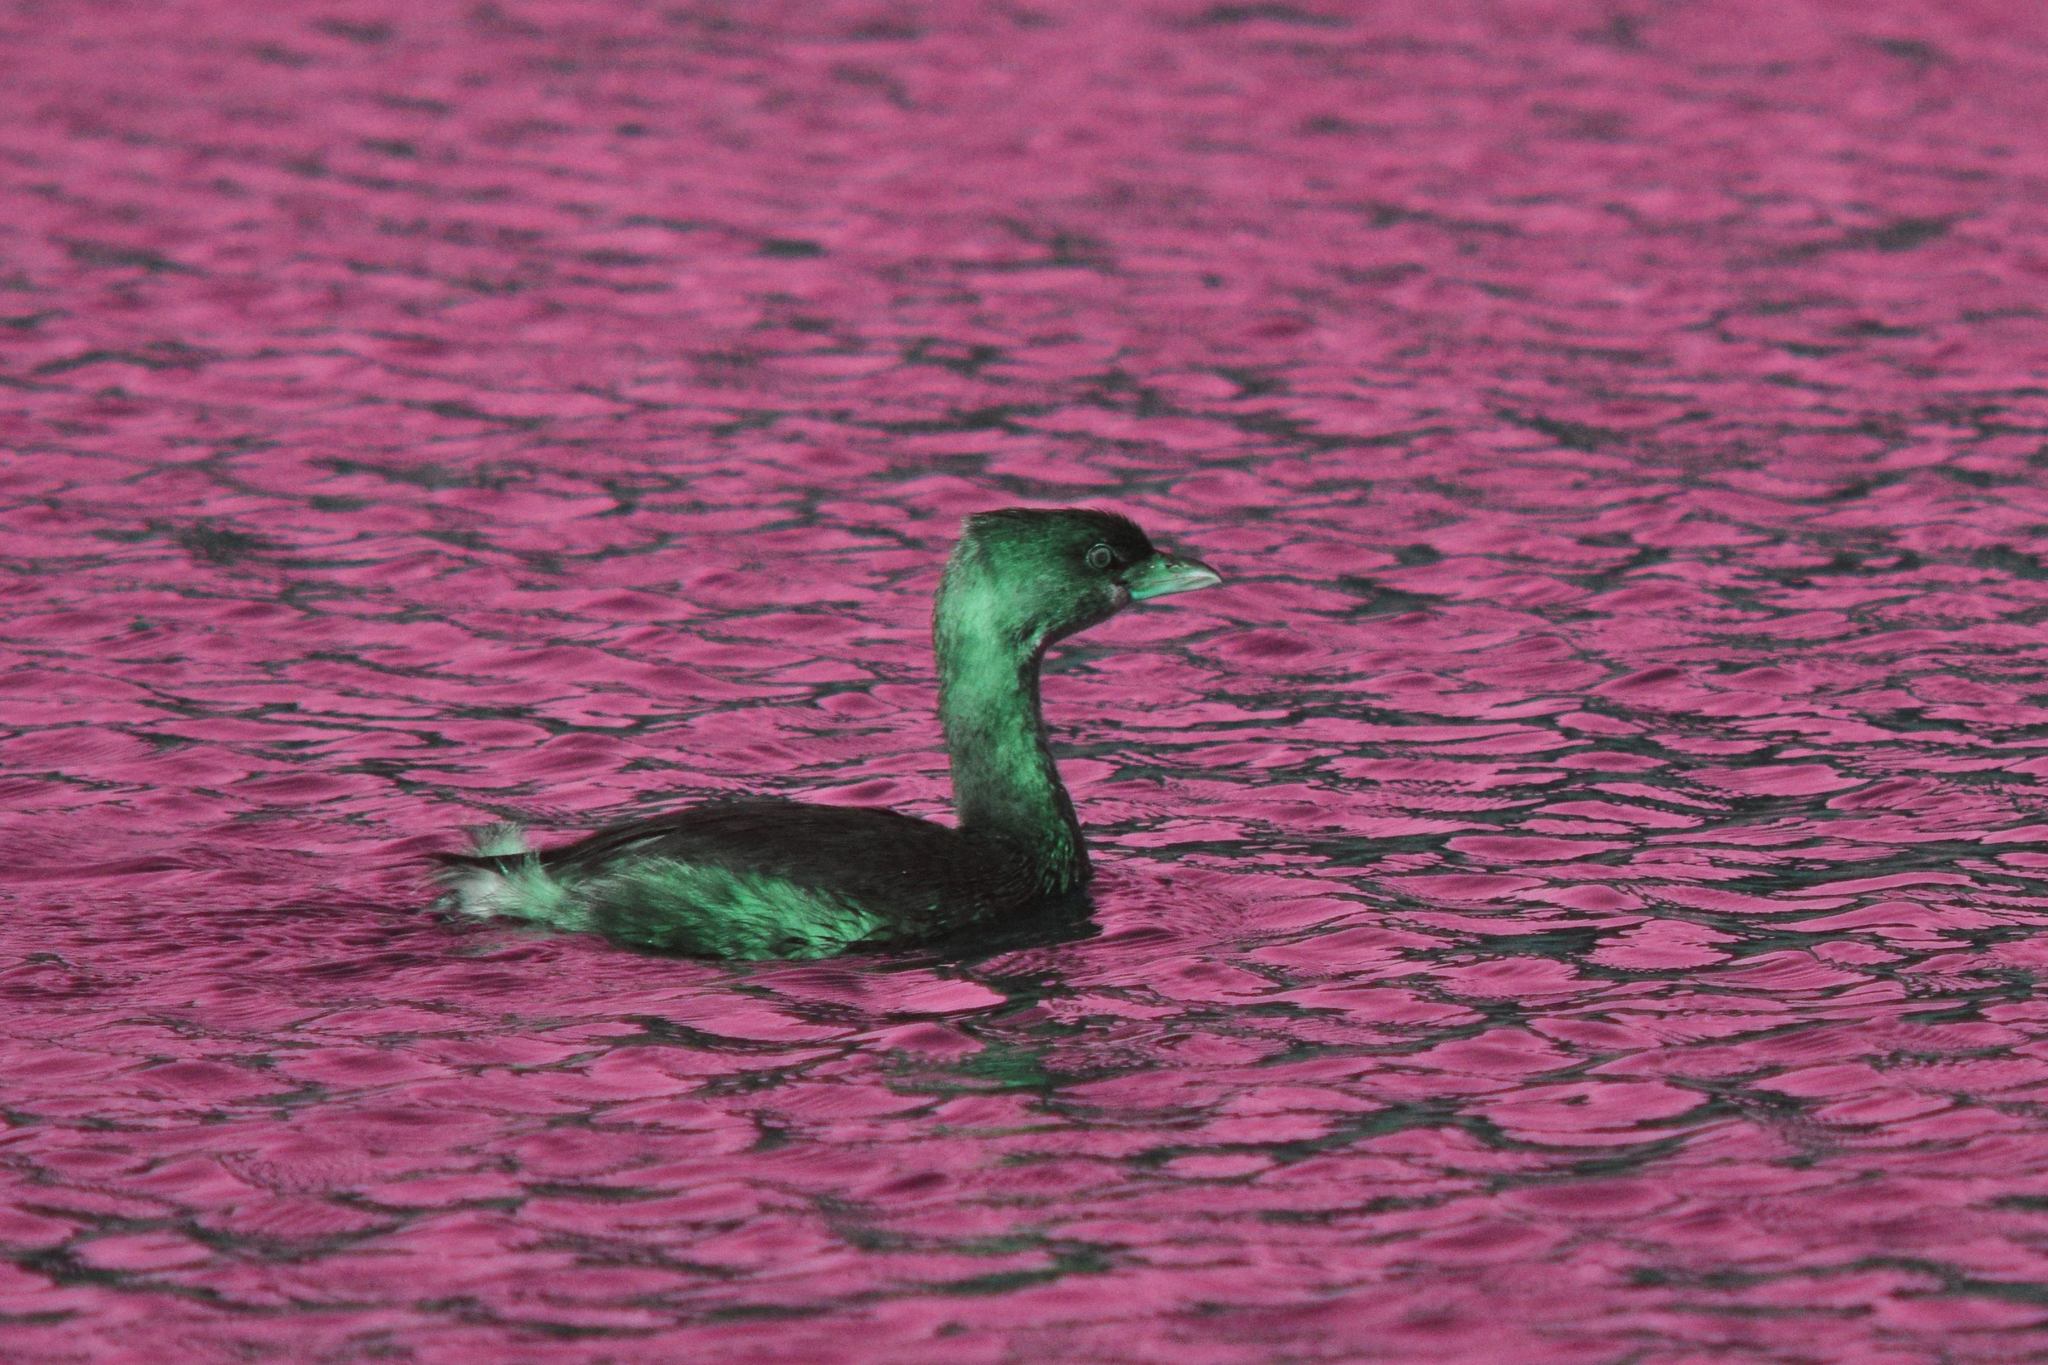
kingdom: Animalia
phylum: Chordata
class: Aves
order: Podicipediformes
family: Podicipedidae
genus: Podilymbus
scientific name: Podilymbus podiceps
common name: Pied-billed grebe
